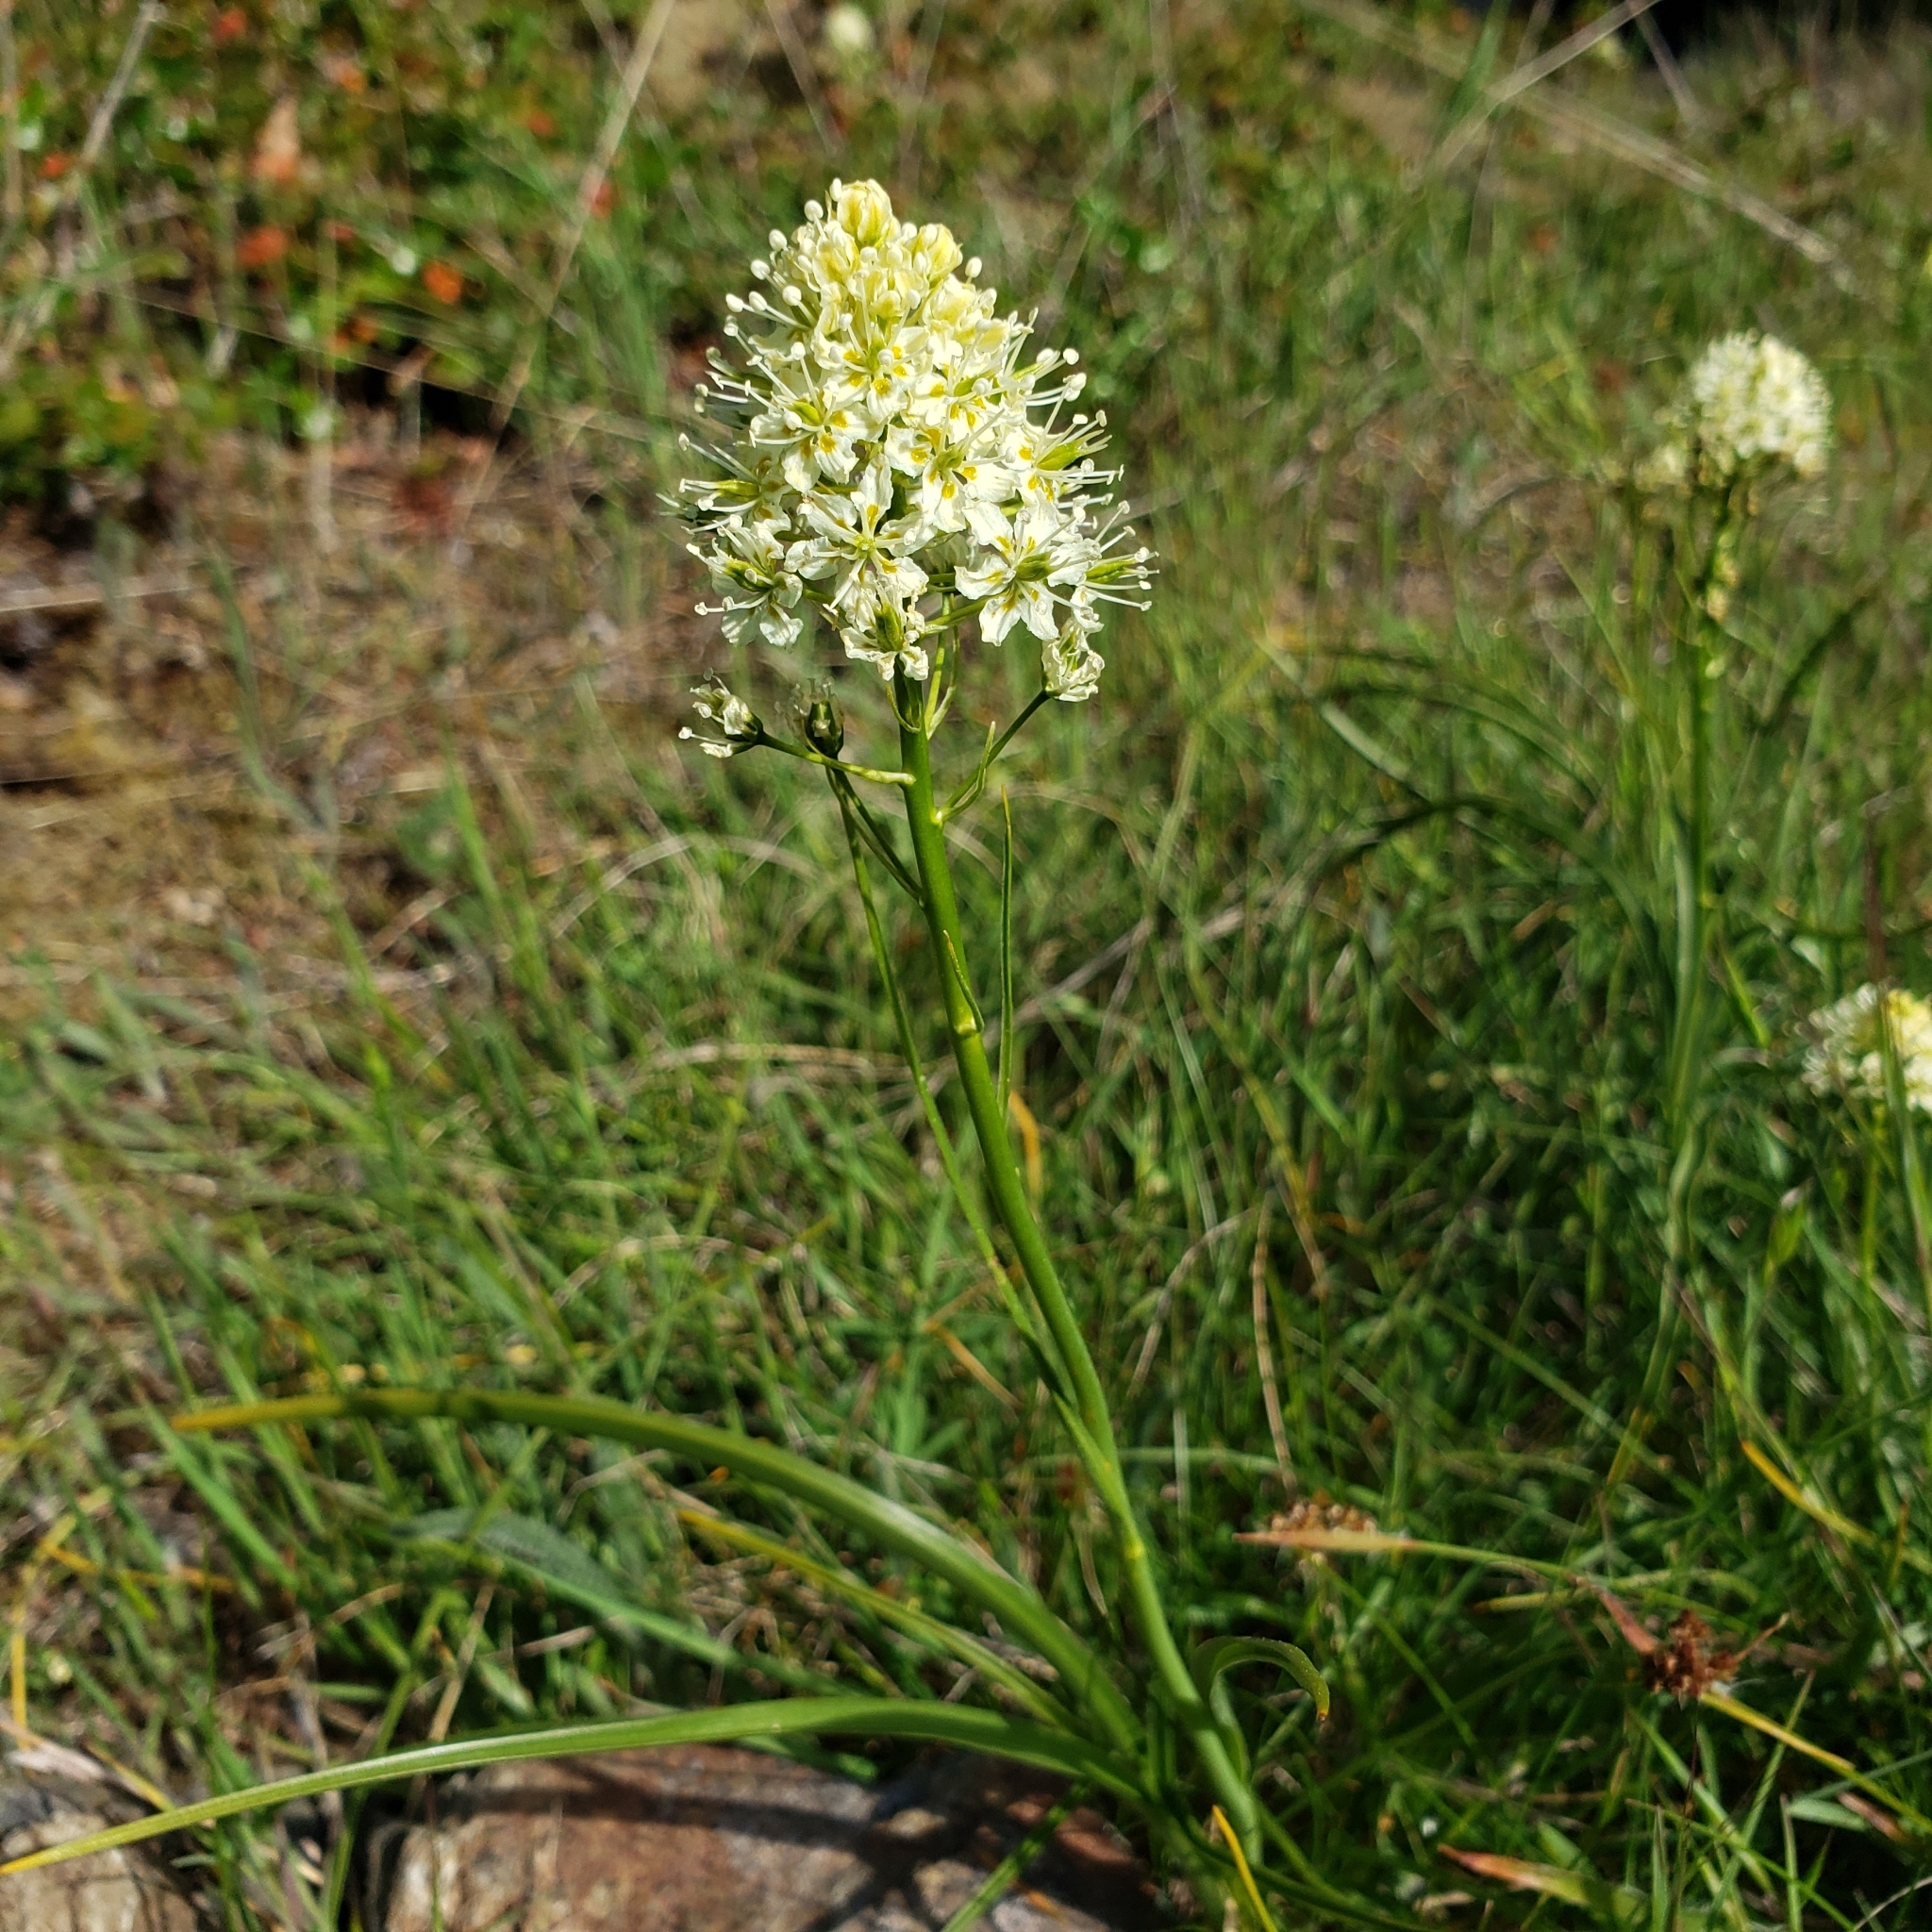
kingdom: Plantae
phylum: Tracheophyta
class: Liliopsida
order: Liliales
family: Melanthiaceae
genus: Toxicoscordion
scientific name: Toxicoscordion venenosum
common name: Meadow death camas
